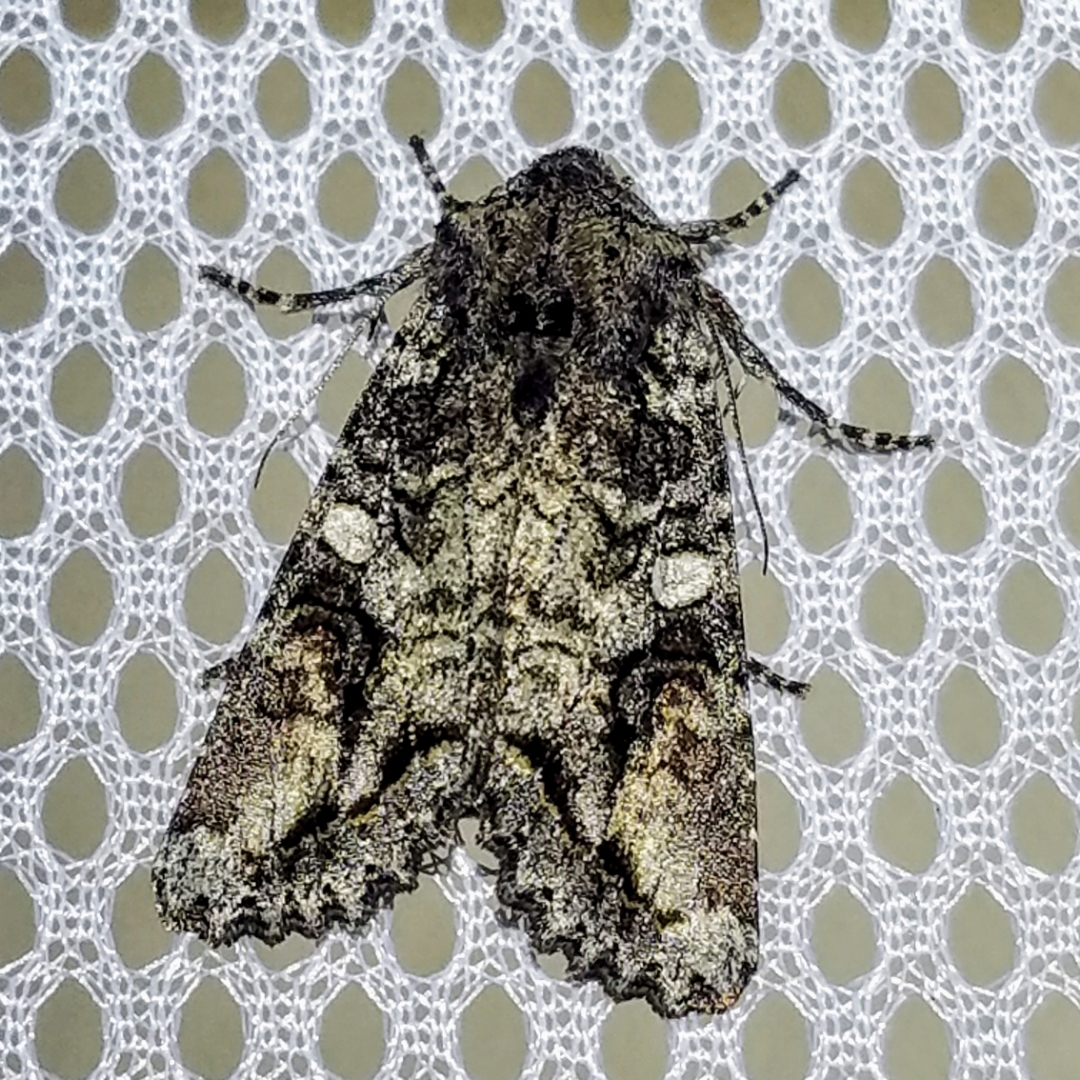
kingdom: Animalia
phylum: Arthropoda
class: Insecta
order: Lepidoptera
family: Noctuidae
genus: Egira
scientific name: Egira perlubens
